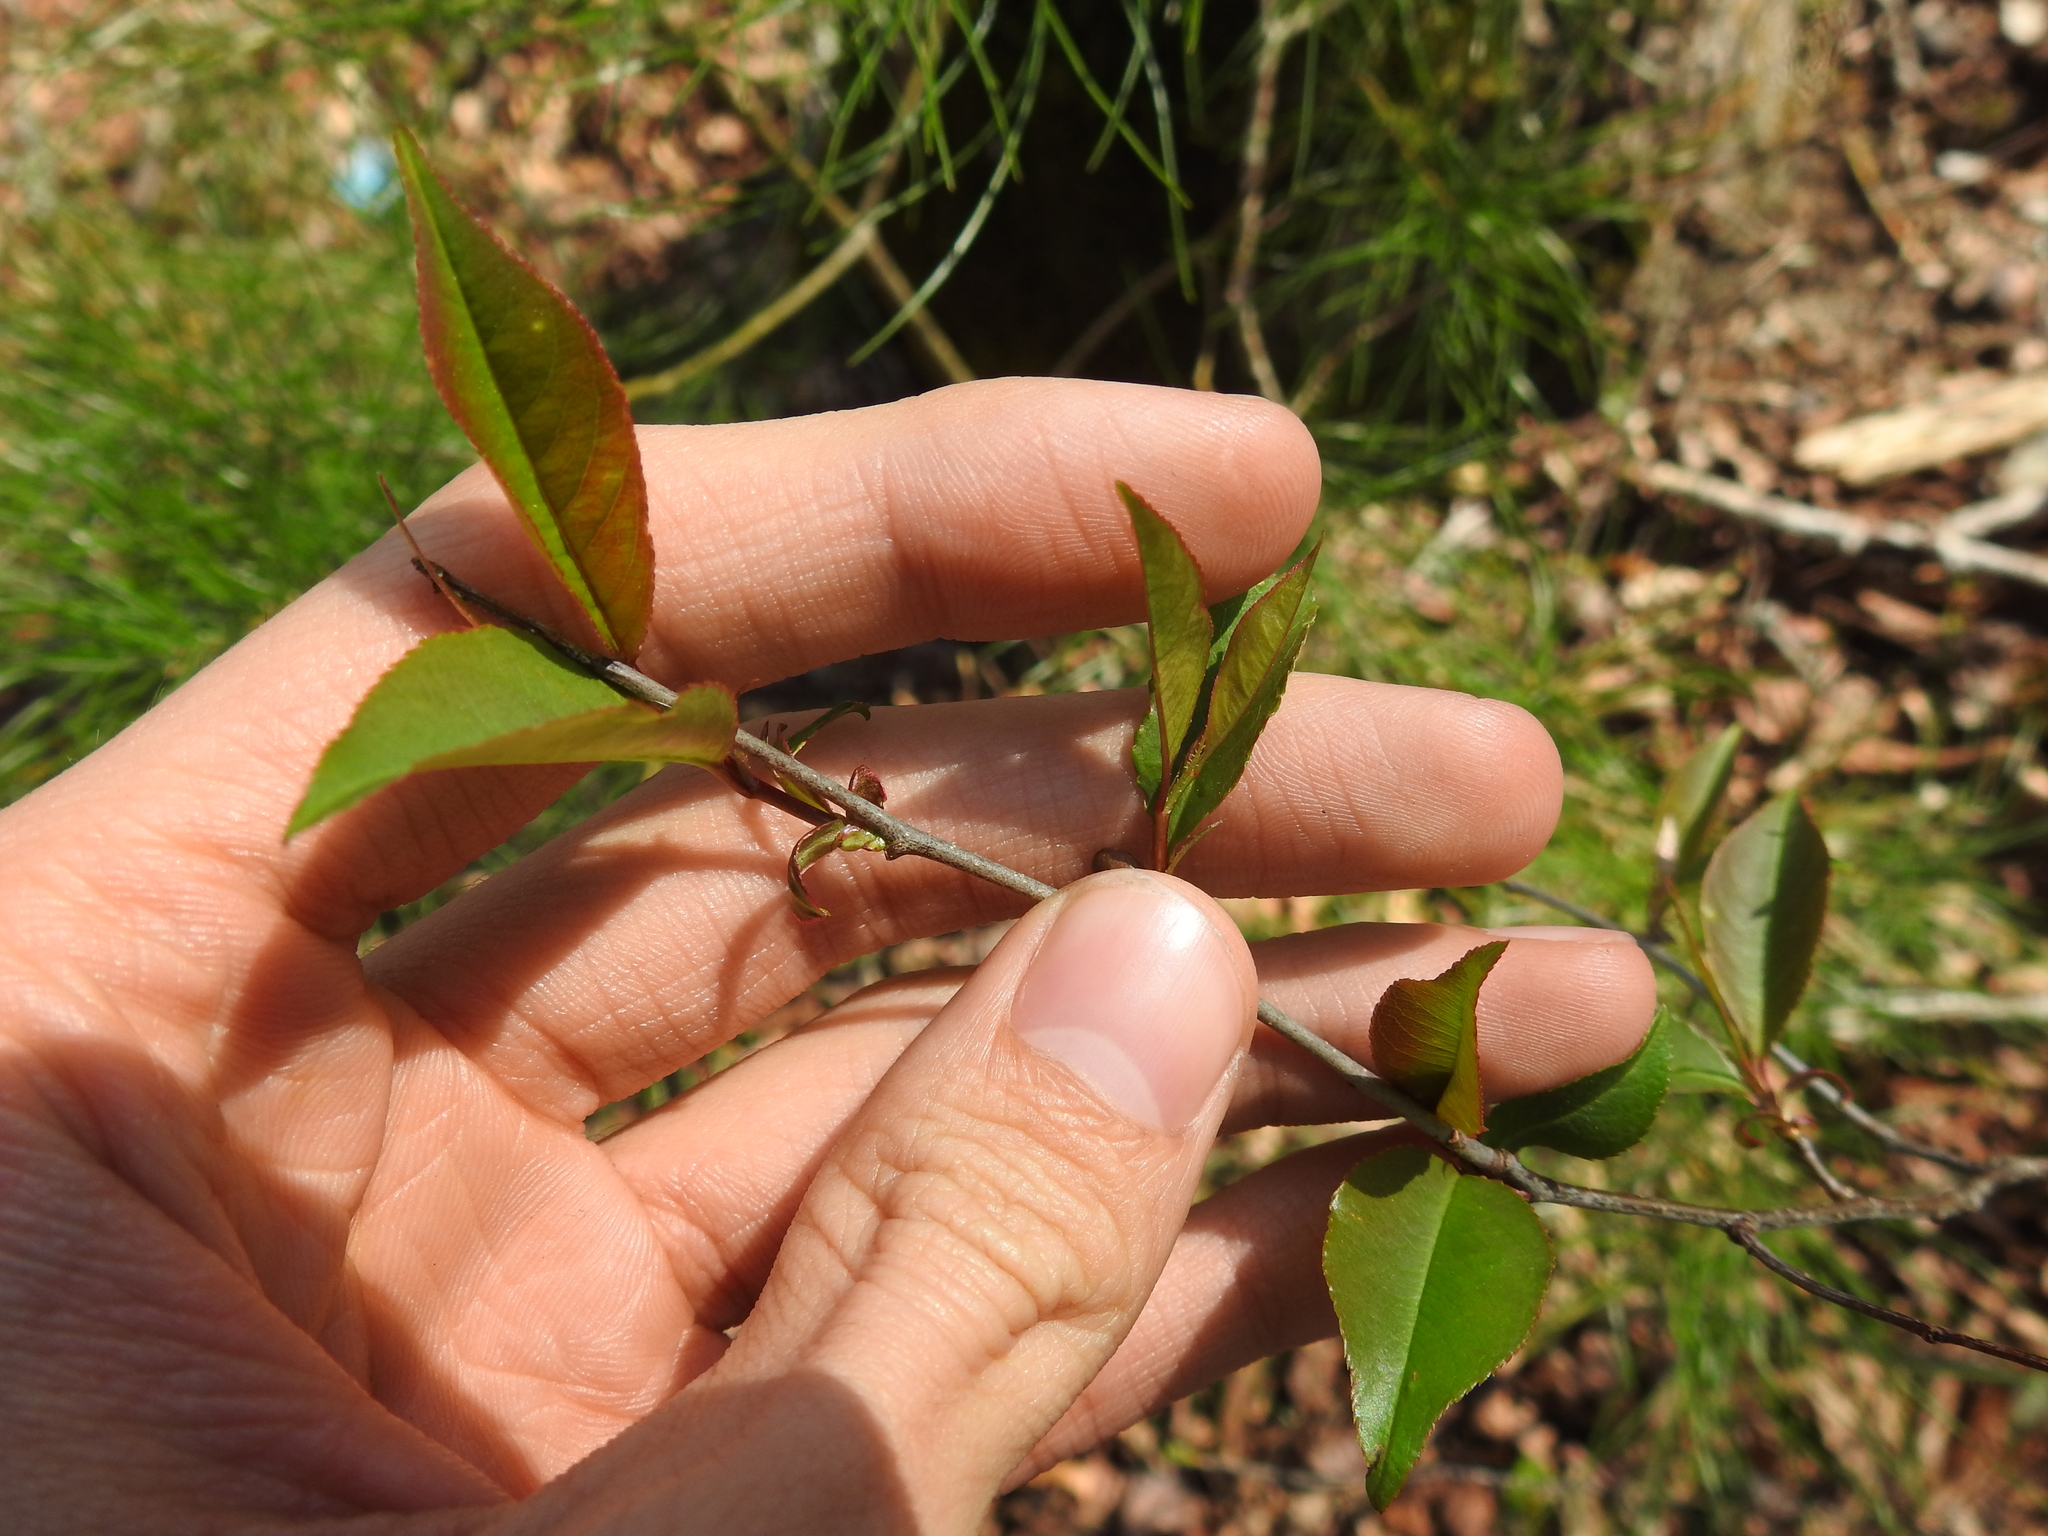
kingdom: Plantae
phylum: Tracheophyta
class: Magnoliopsida
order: Rosales
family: Rosaceae
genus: Prunus
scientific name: Prunus serotina
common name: Black cherry
